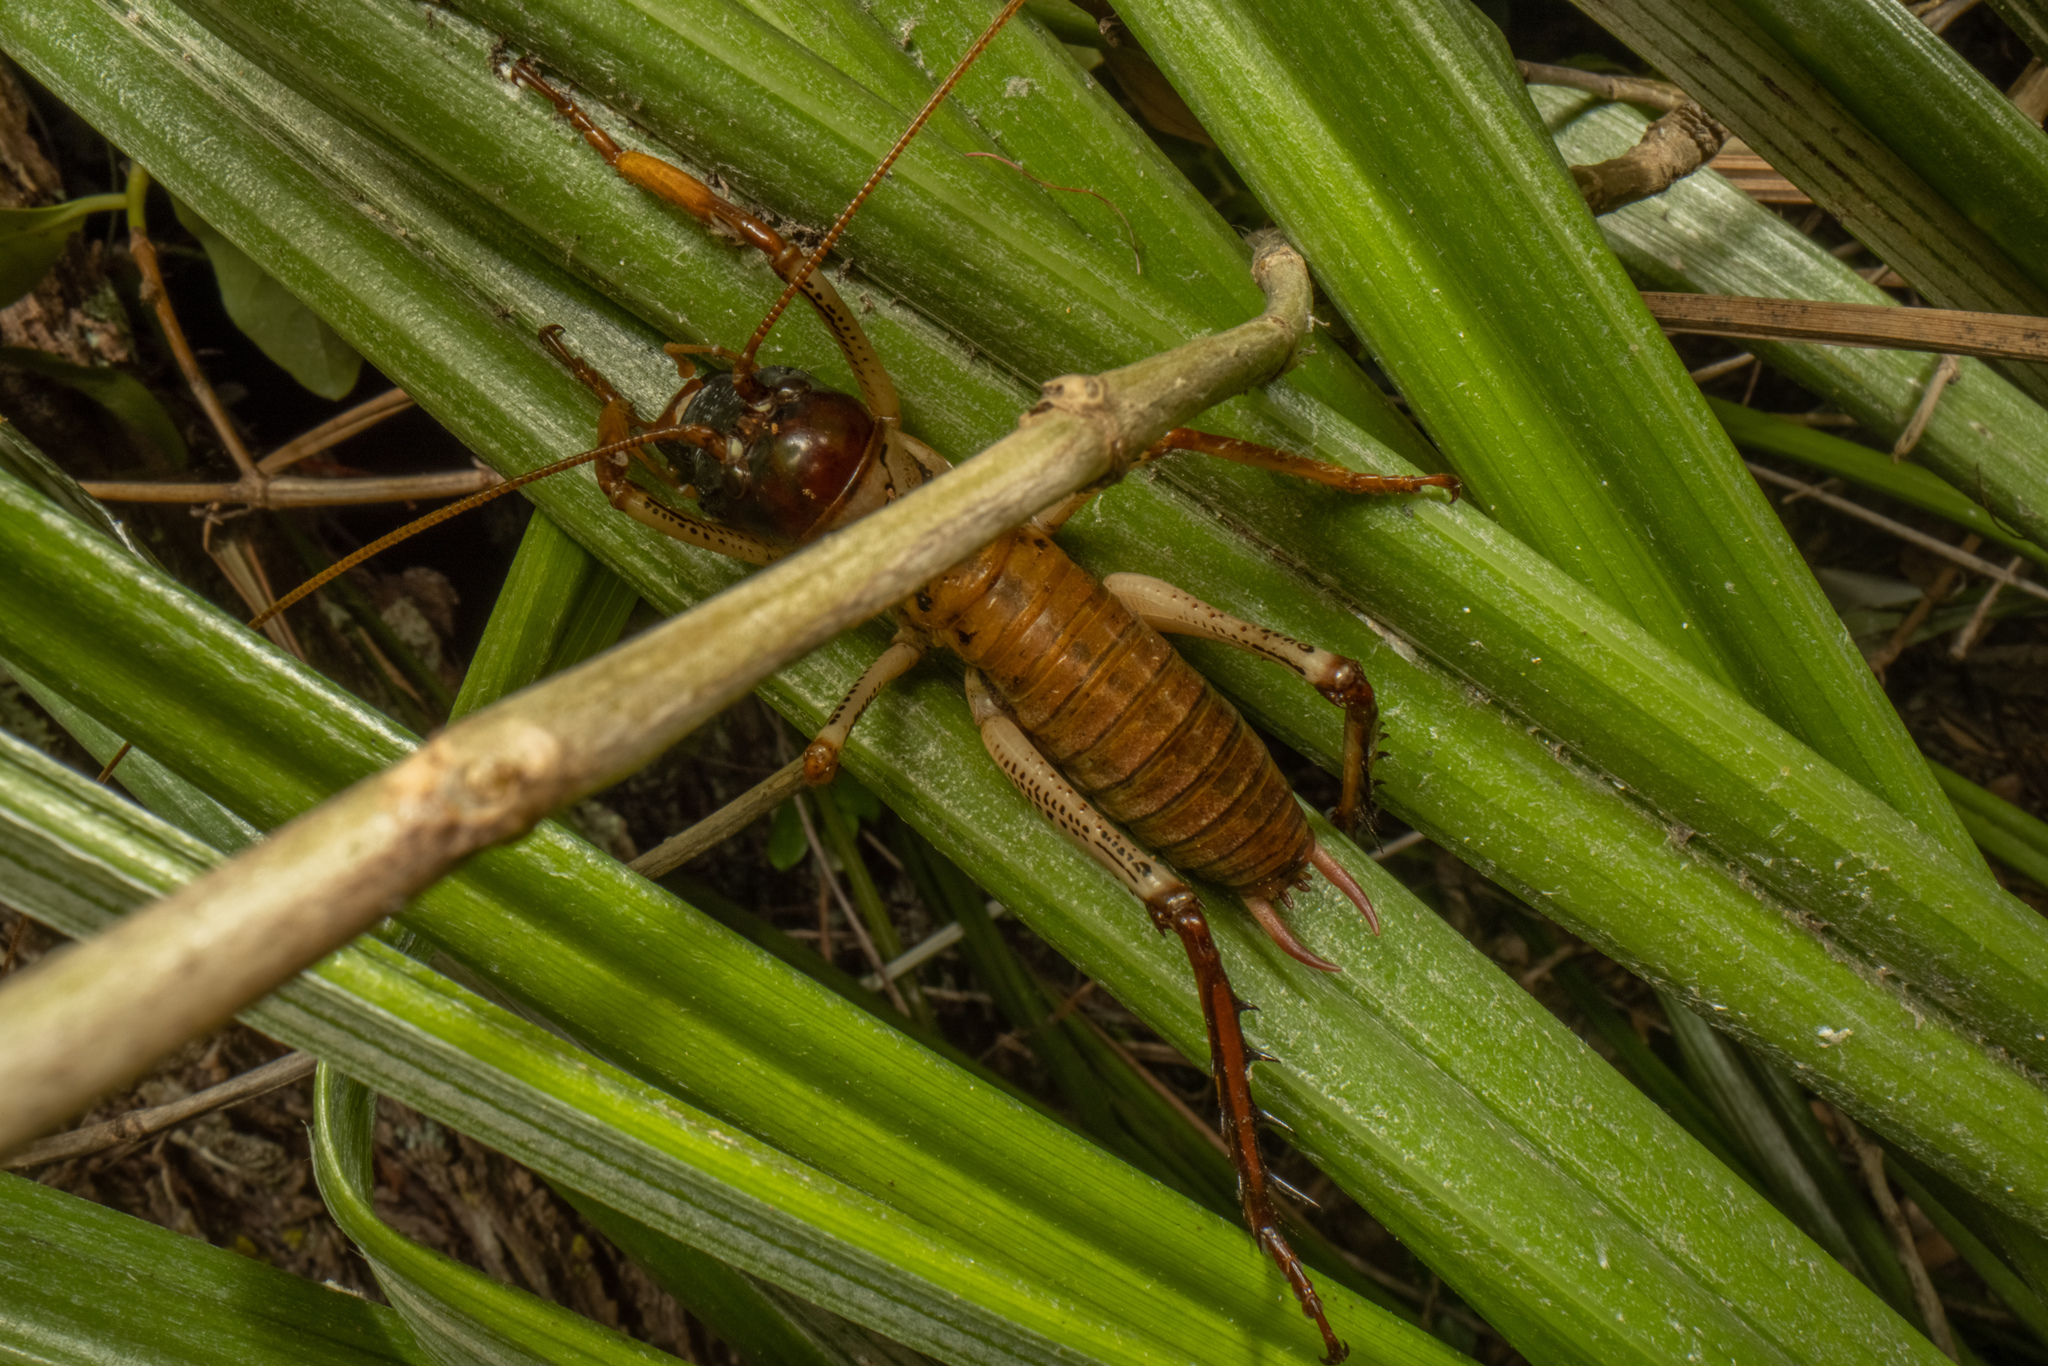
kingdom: Animalia
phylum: Arthropoda
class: Insecta
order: Orthoptera
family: Anostostomatidae
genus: Hemideina
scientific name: Hemideina thoracica
